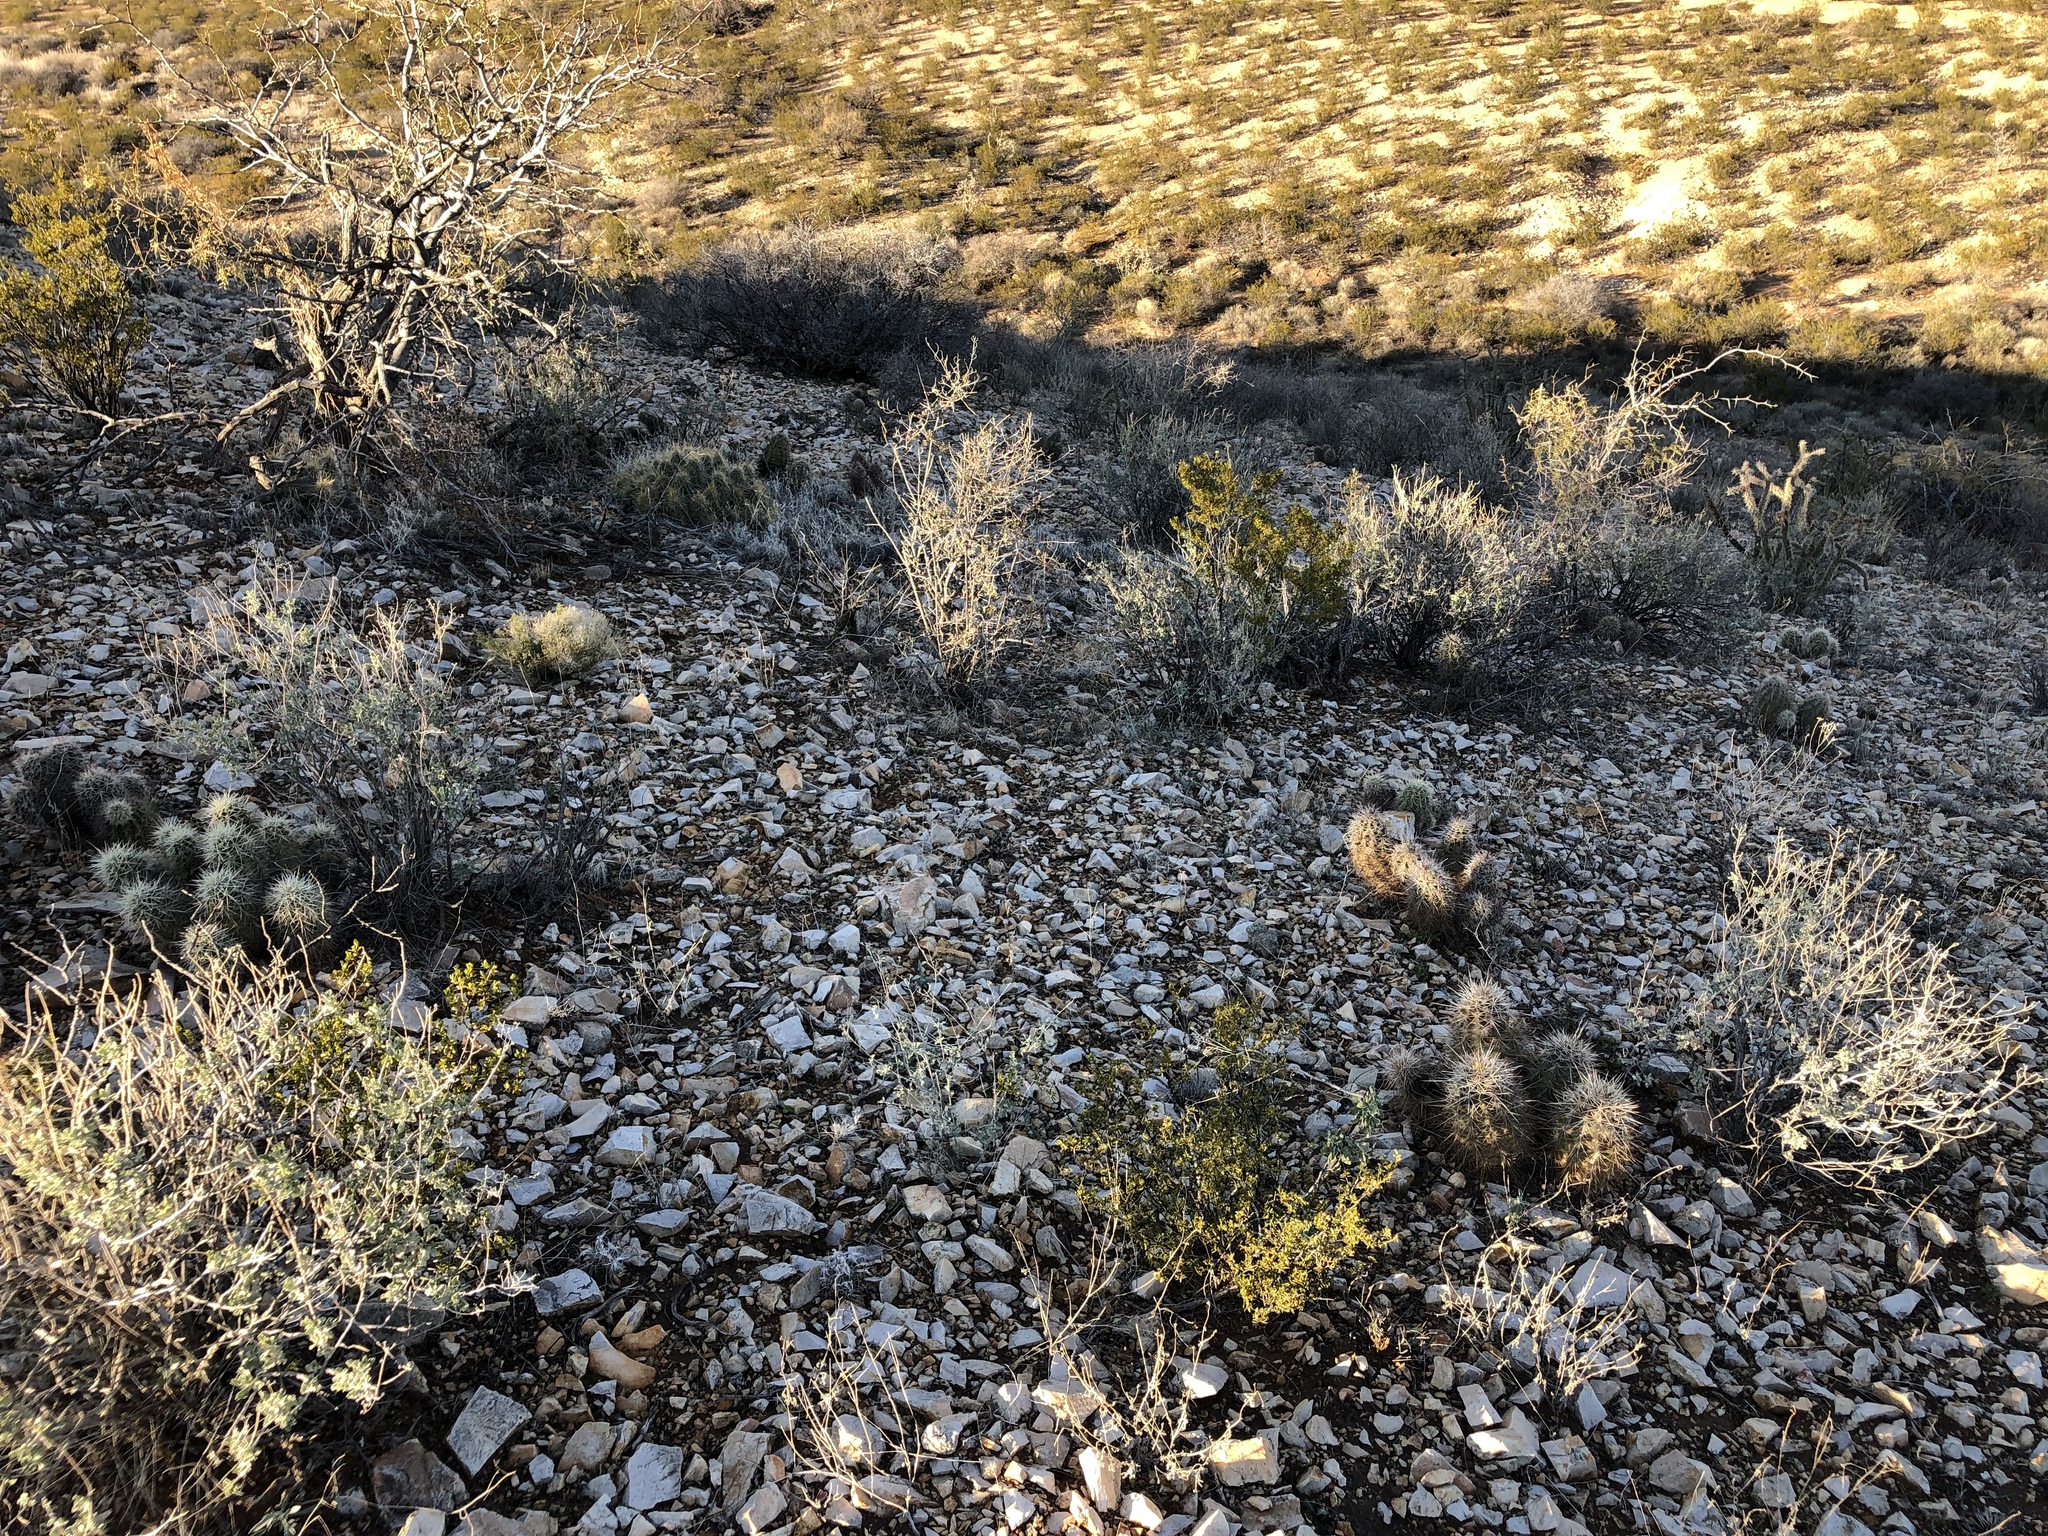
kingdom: Plantae
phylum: Tracheophyta
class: Magnoliopsida
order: Caryophyllales
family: Cactaceae
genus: Echinocereus
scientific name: Echinocereus stramineus
